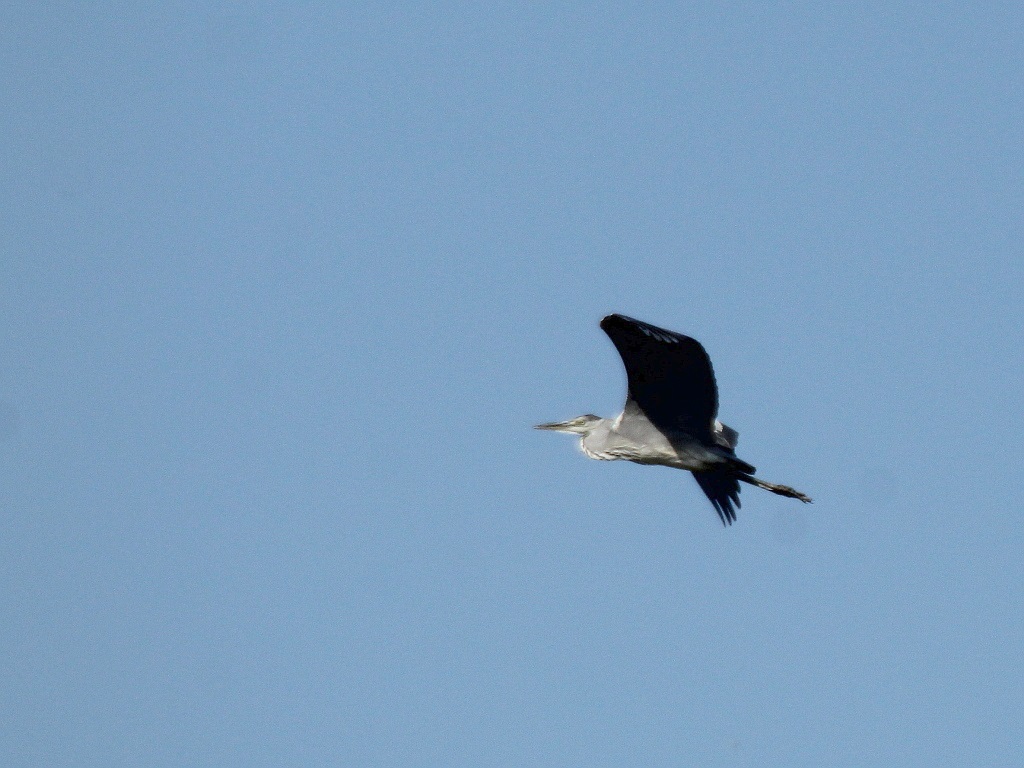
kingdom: Animalia
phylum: Chordata
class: Aves
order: Pelecaniformes
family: Ardeidae
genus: Ardea
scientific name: Ardea cinerea
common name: Grey heron
